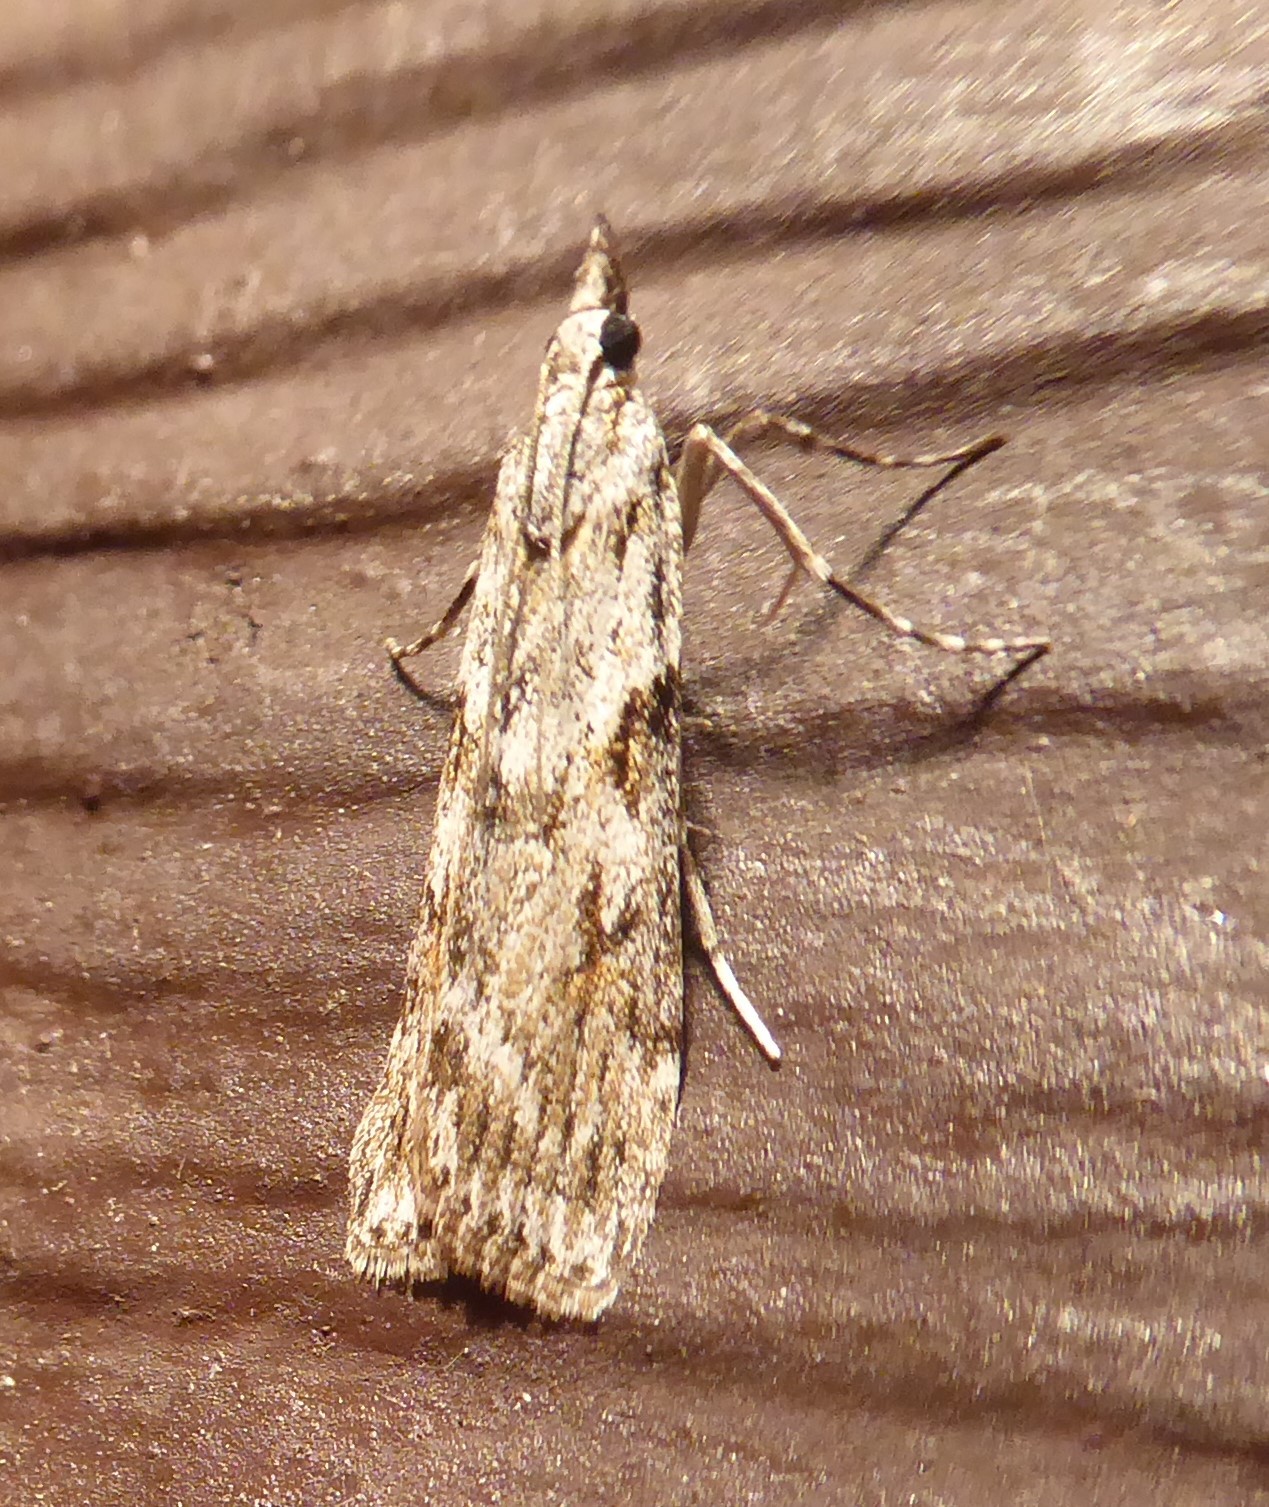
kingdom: Animalia
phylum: Arthropoda
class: Insecta
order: Lepidoptera
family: Crambidae
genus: Scoparia
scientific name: Scoparia halopis
